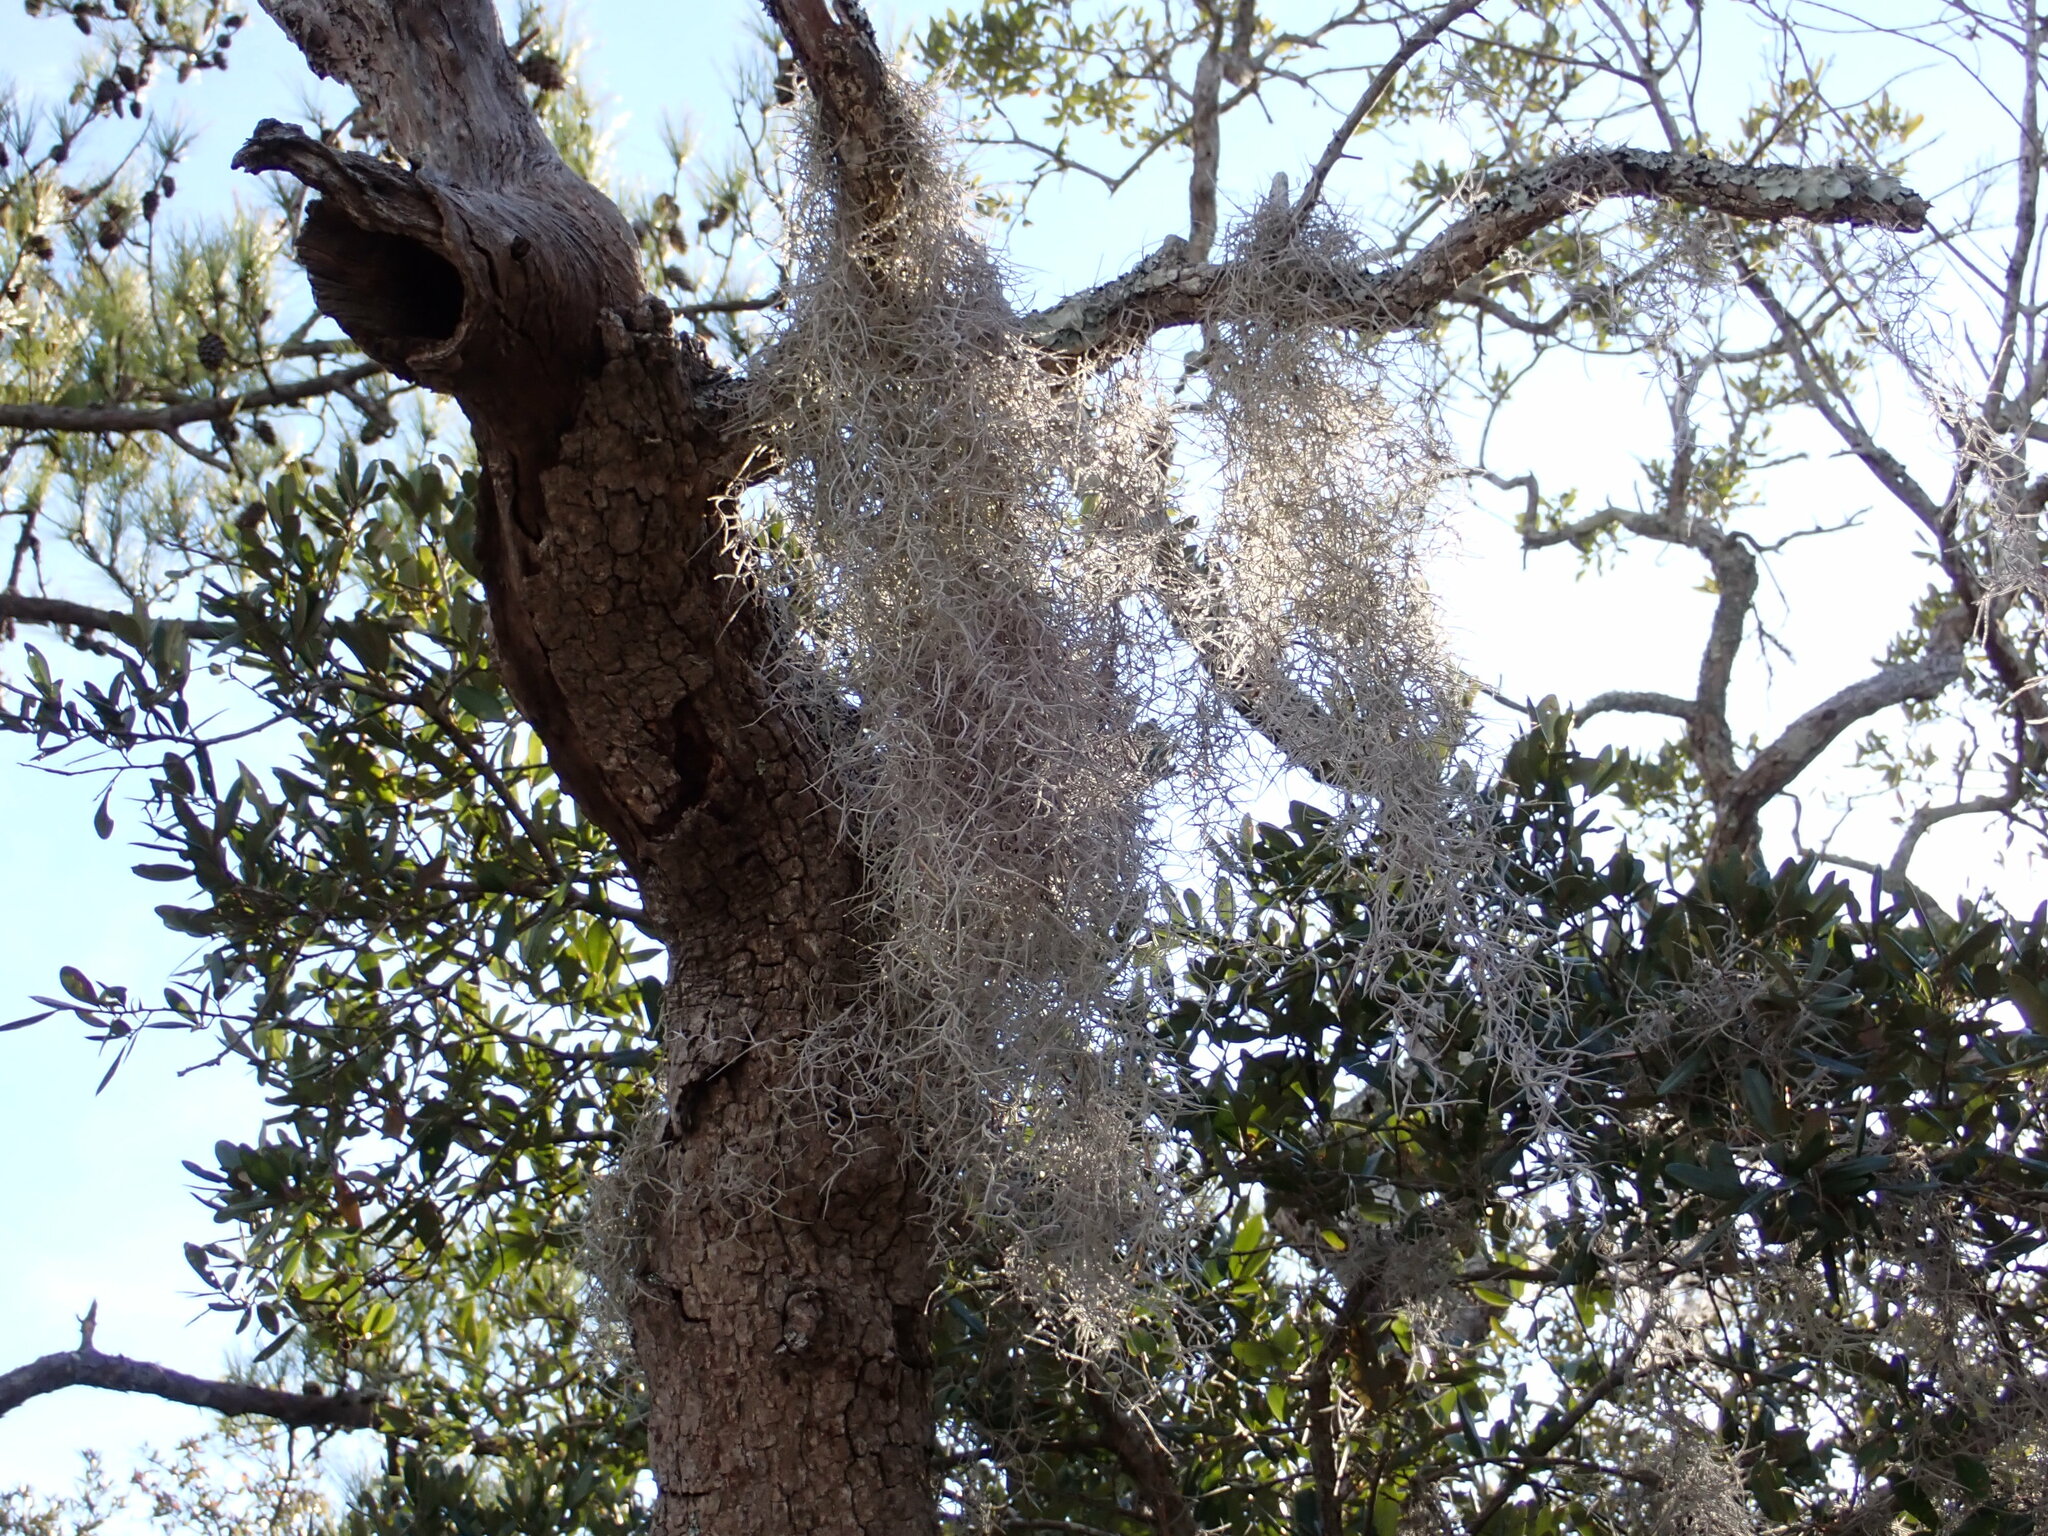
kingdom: Plantae
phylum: Tracheophyta
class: Liliopsida
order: Poales
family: Bromeliaceae
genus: Tillandsia
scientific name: Tillandsia usneoides
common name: Spanish moss
